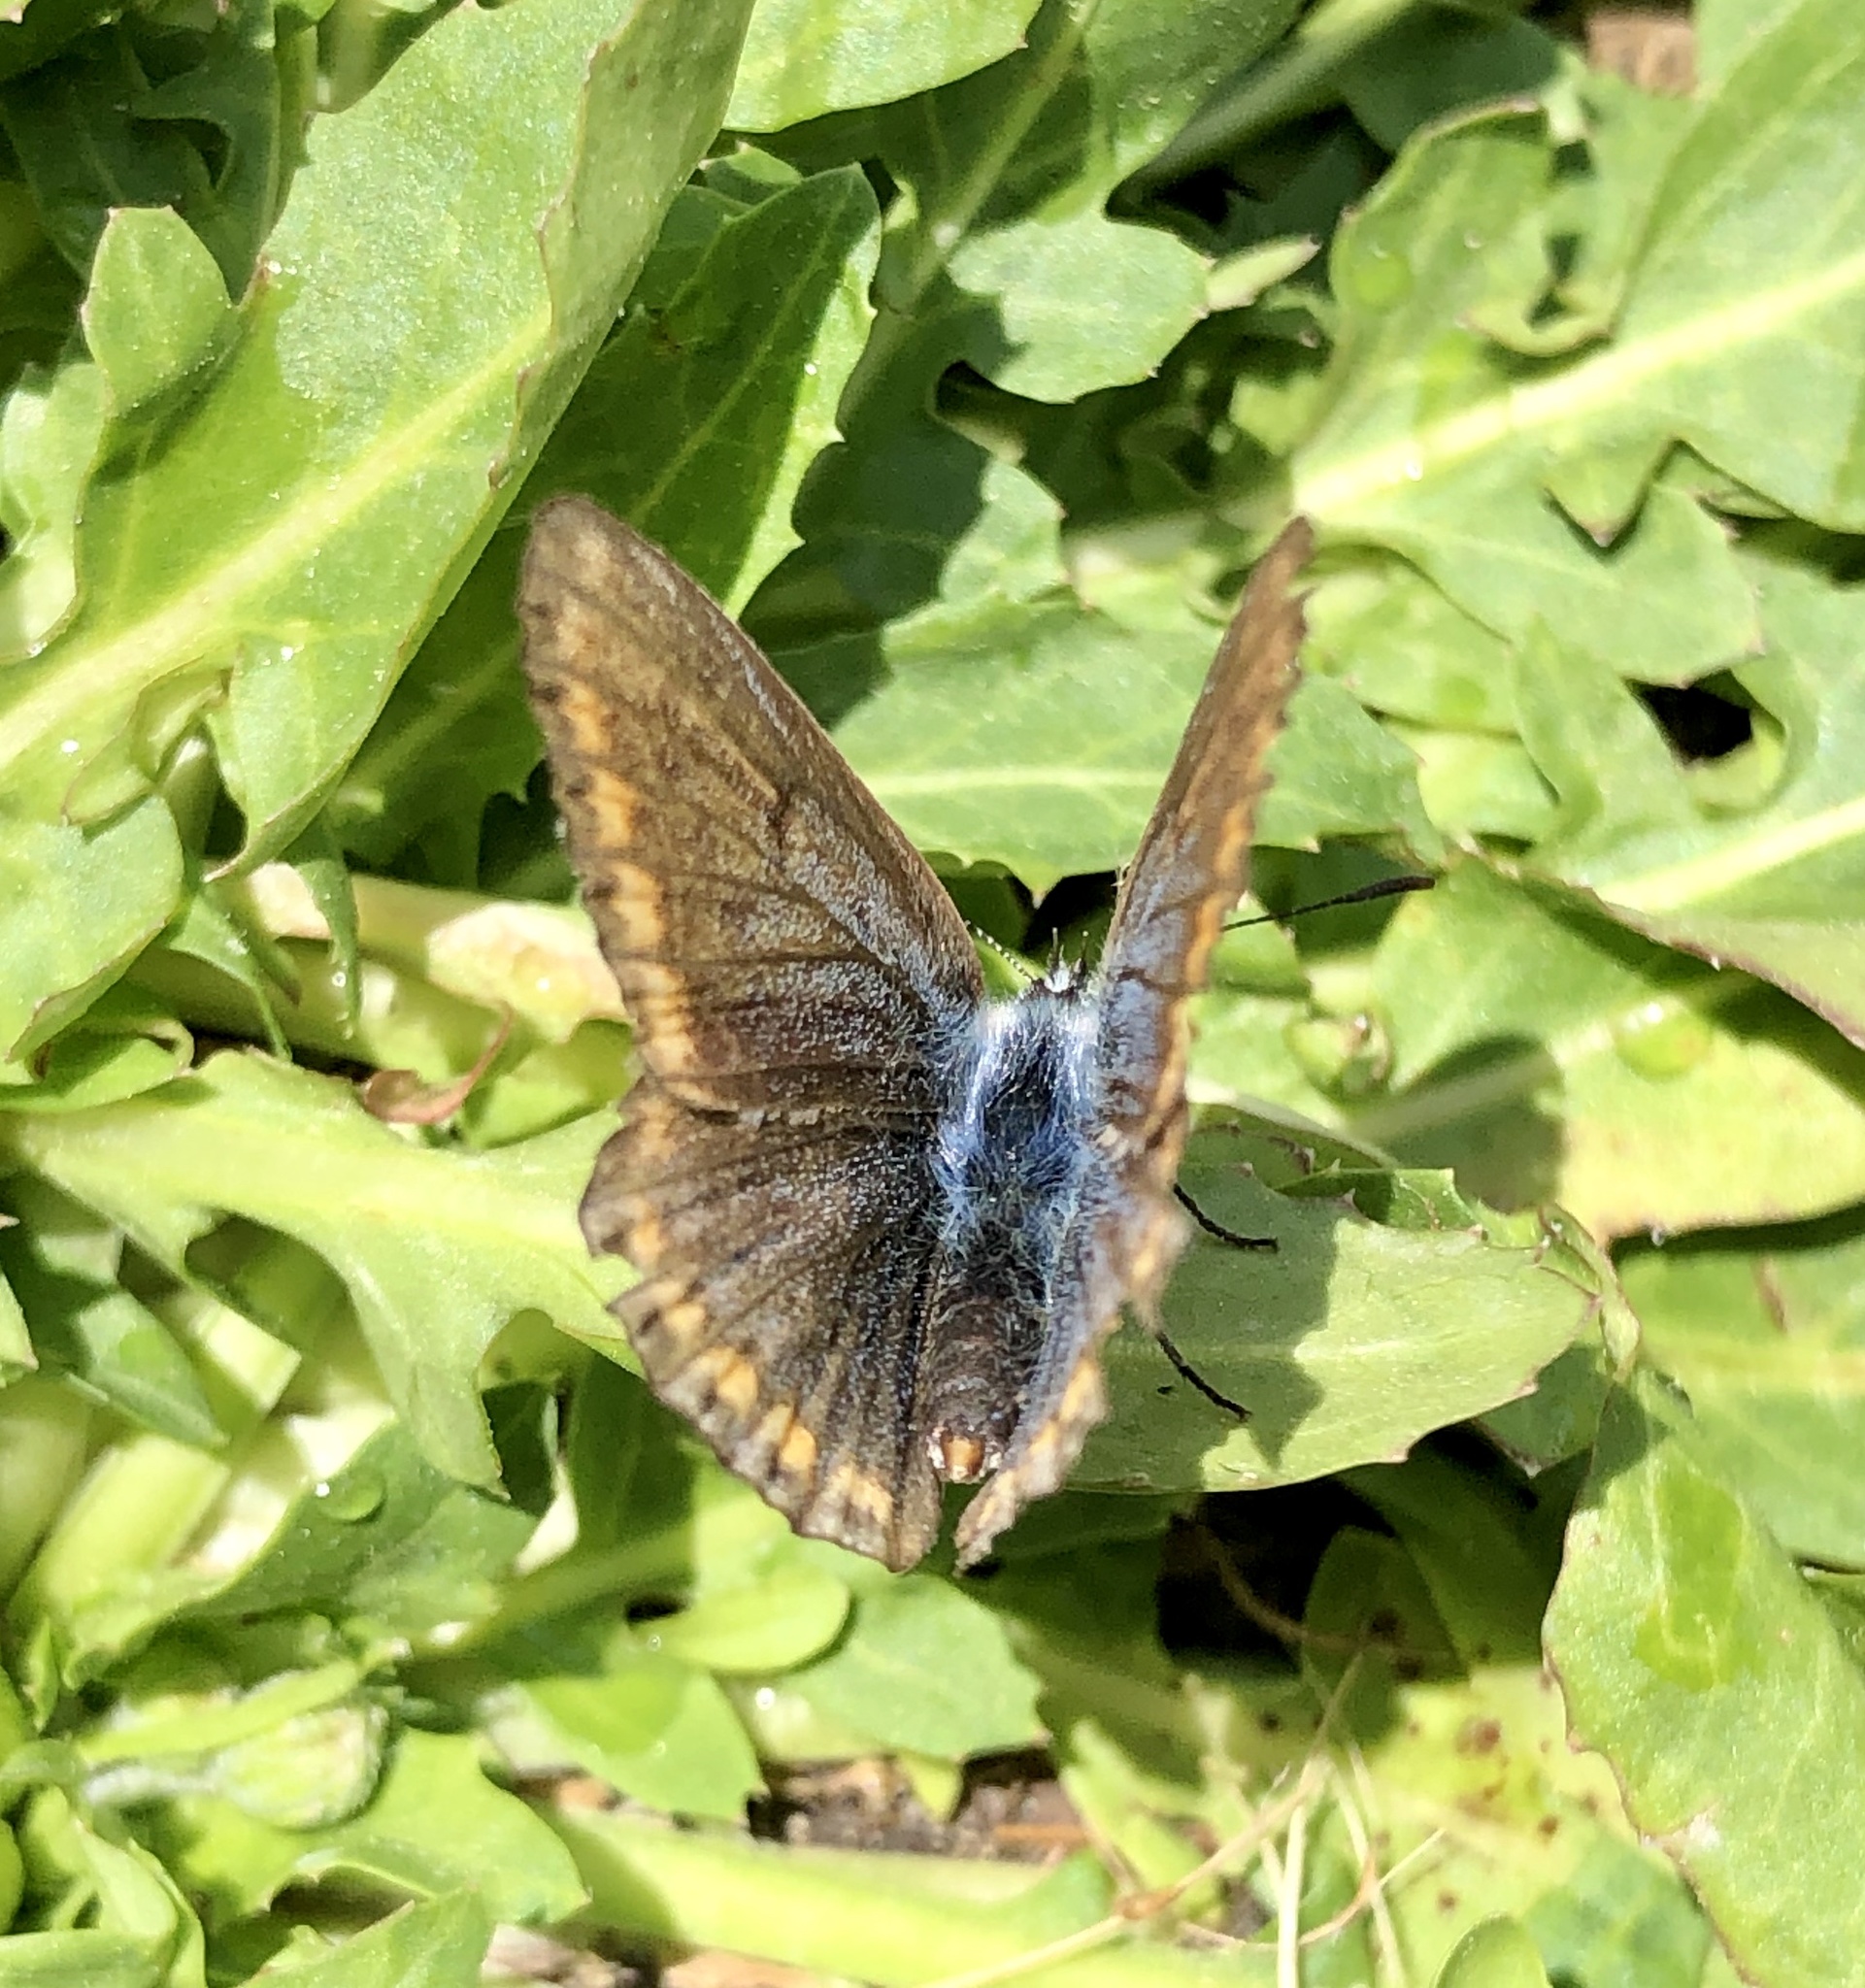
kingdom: Animalia
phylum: Arthropoda
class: Insecta
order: Lepidoptera
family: Lycaenidae
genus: Polyommatus
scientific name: Polyommatus icarus
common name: Common blue
